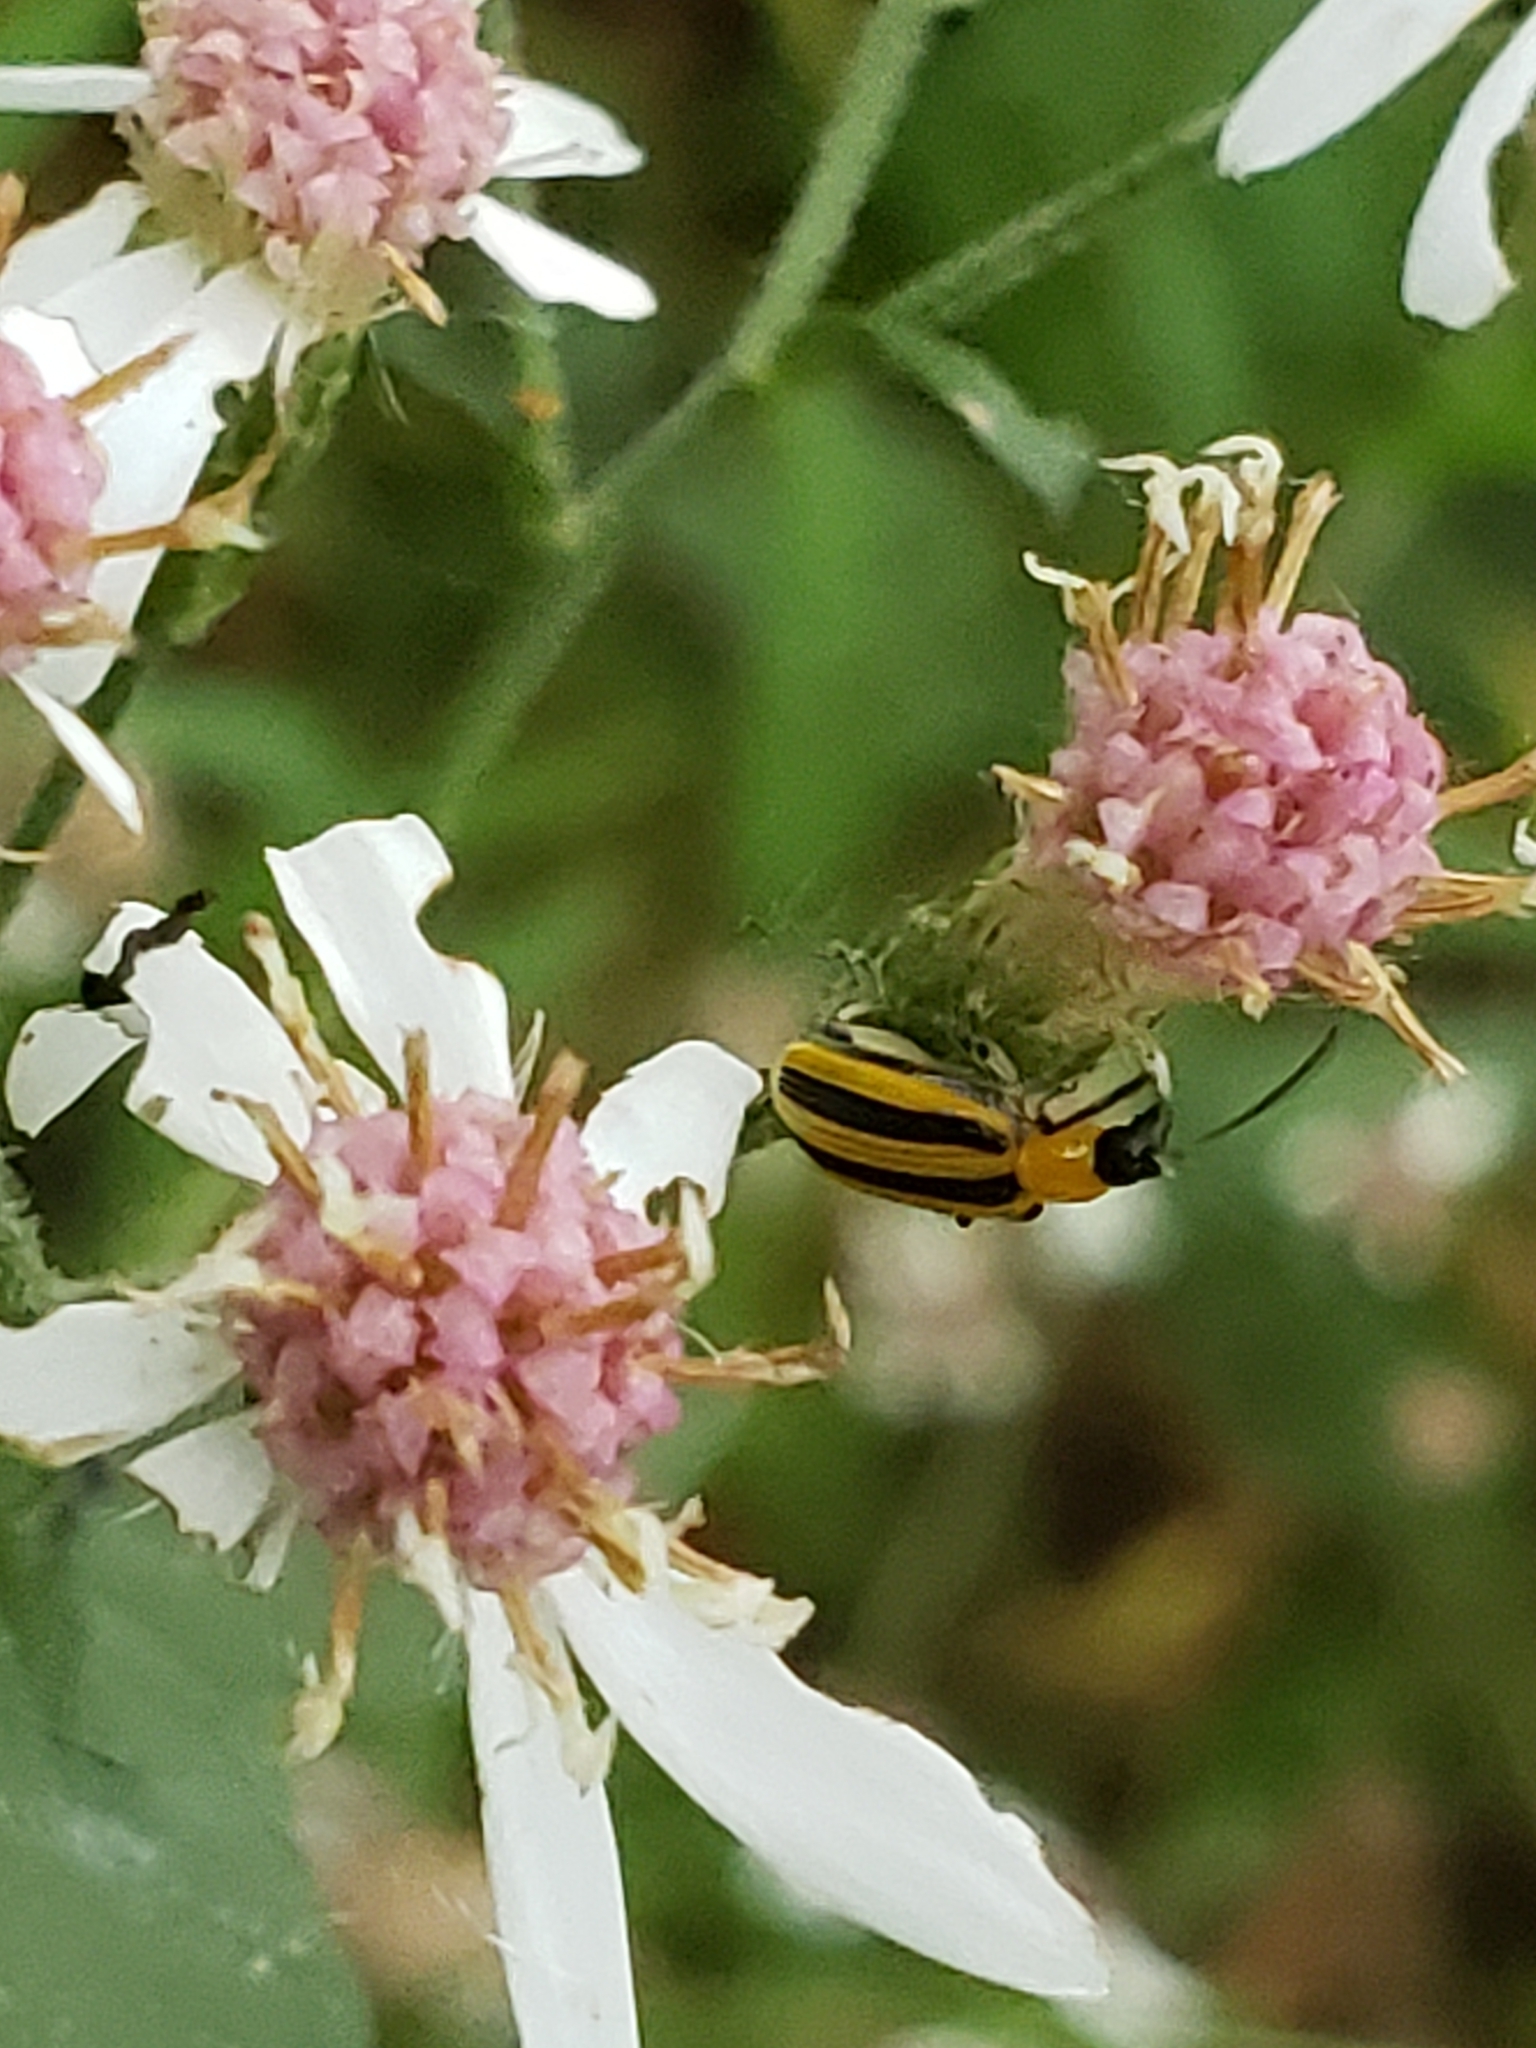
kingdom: Animalia
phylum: Arthropoda
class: Insecta
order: Coleoptera
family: Chrysomelidae
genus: Acalymma
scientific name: Acalymma vittatum
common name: Striped cucumber beetle
